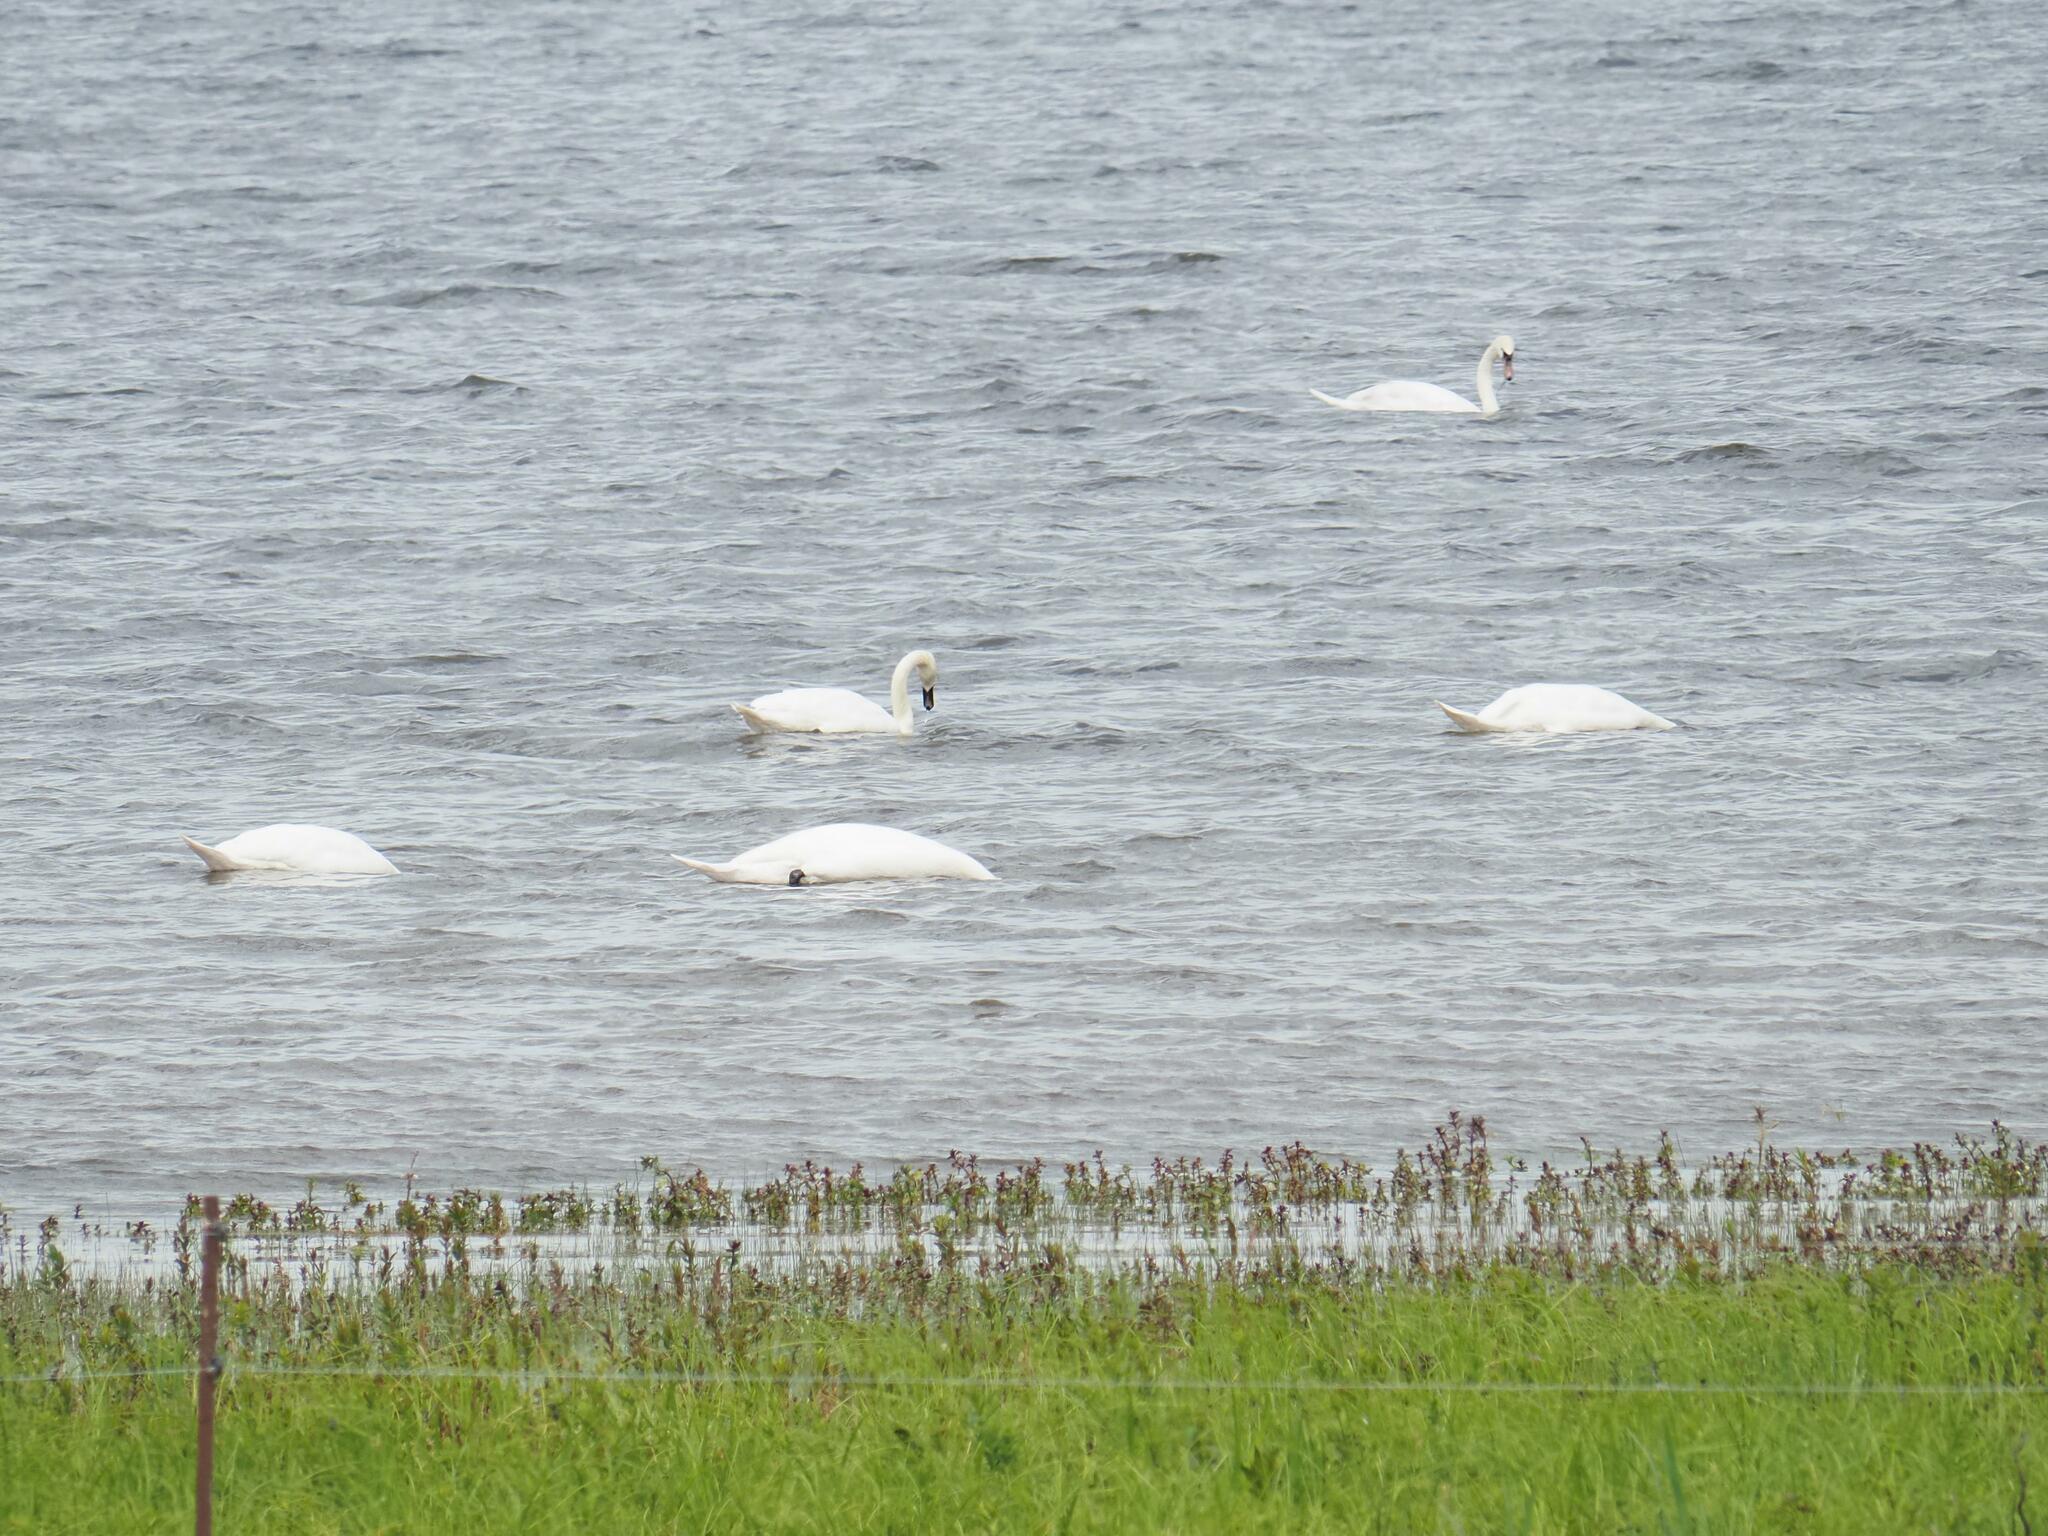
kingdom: Animalia
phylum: Chordata
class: Aves
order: Anseriformes
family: Anatidae
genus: Cygnus
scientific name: Cygnus olor
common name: Mute swan
